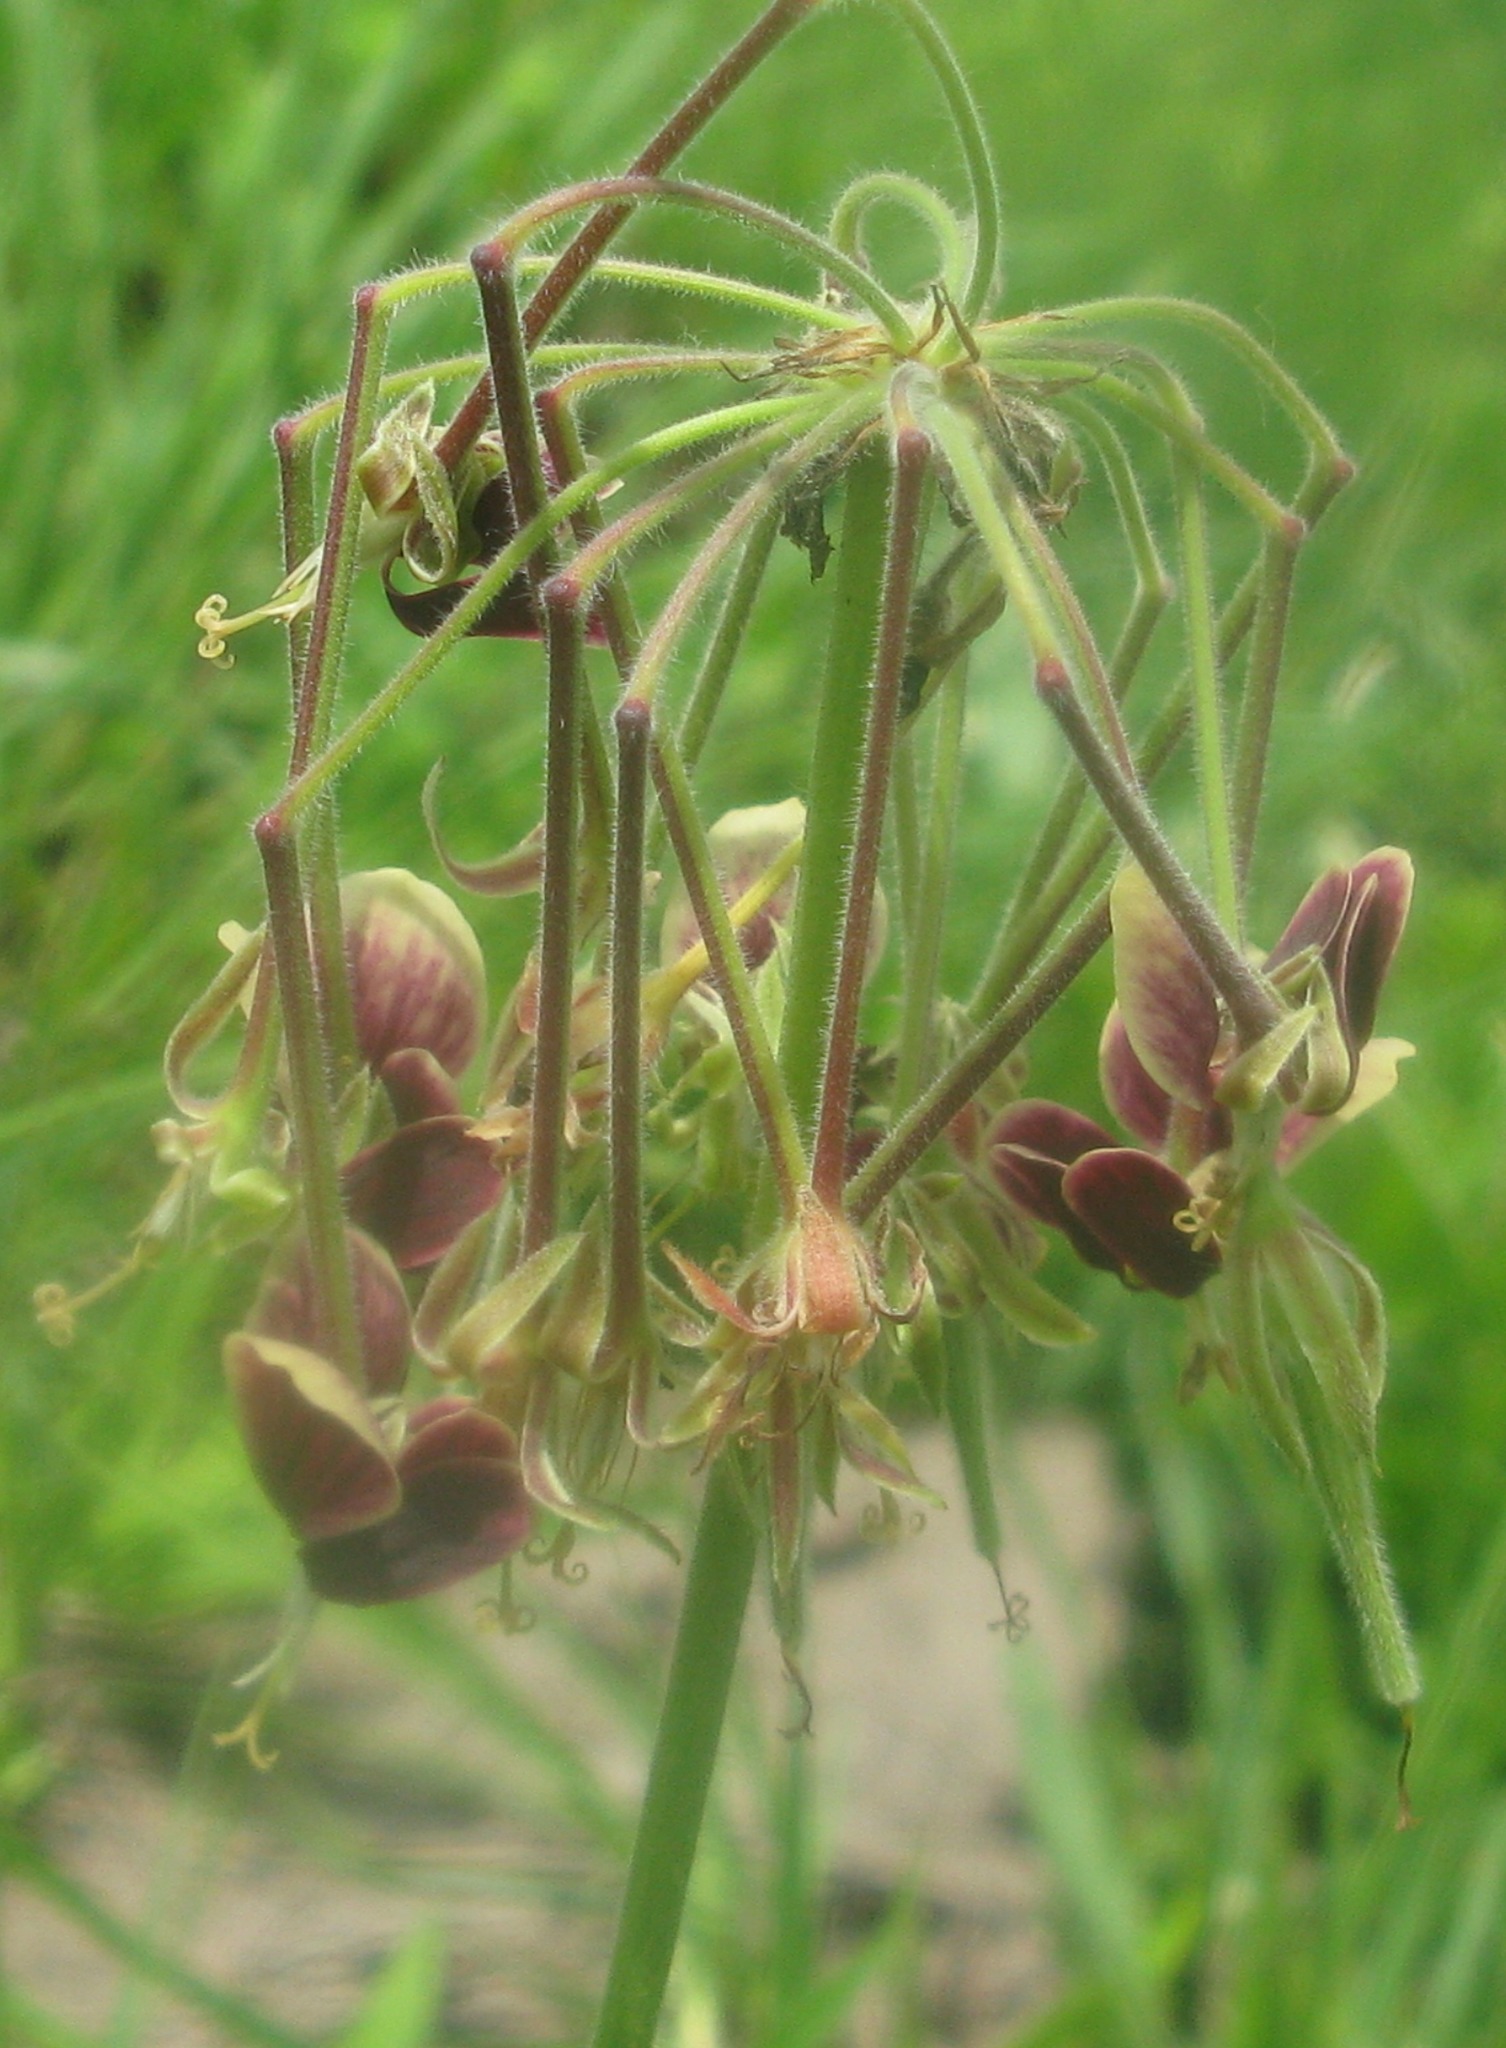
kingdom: Plantae
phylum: Tracheophyta
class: Magnoliopsida
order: Geraniales
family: Geraniaceae
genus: Pelargonium
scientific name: Pelargonium luridum
